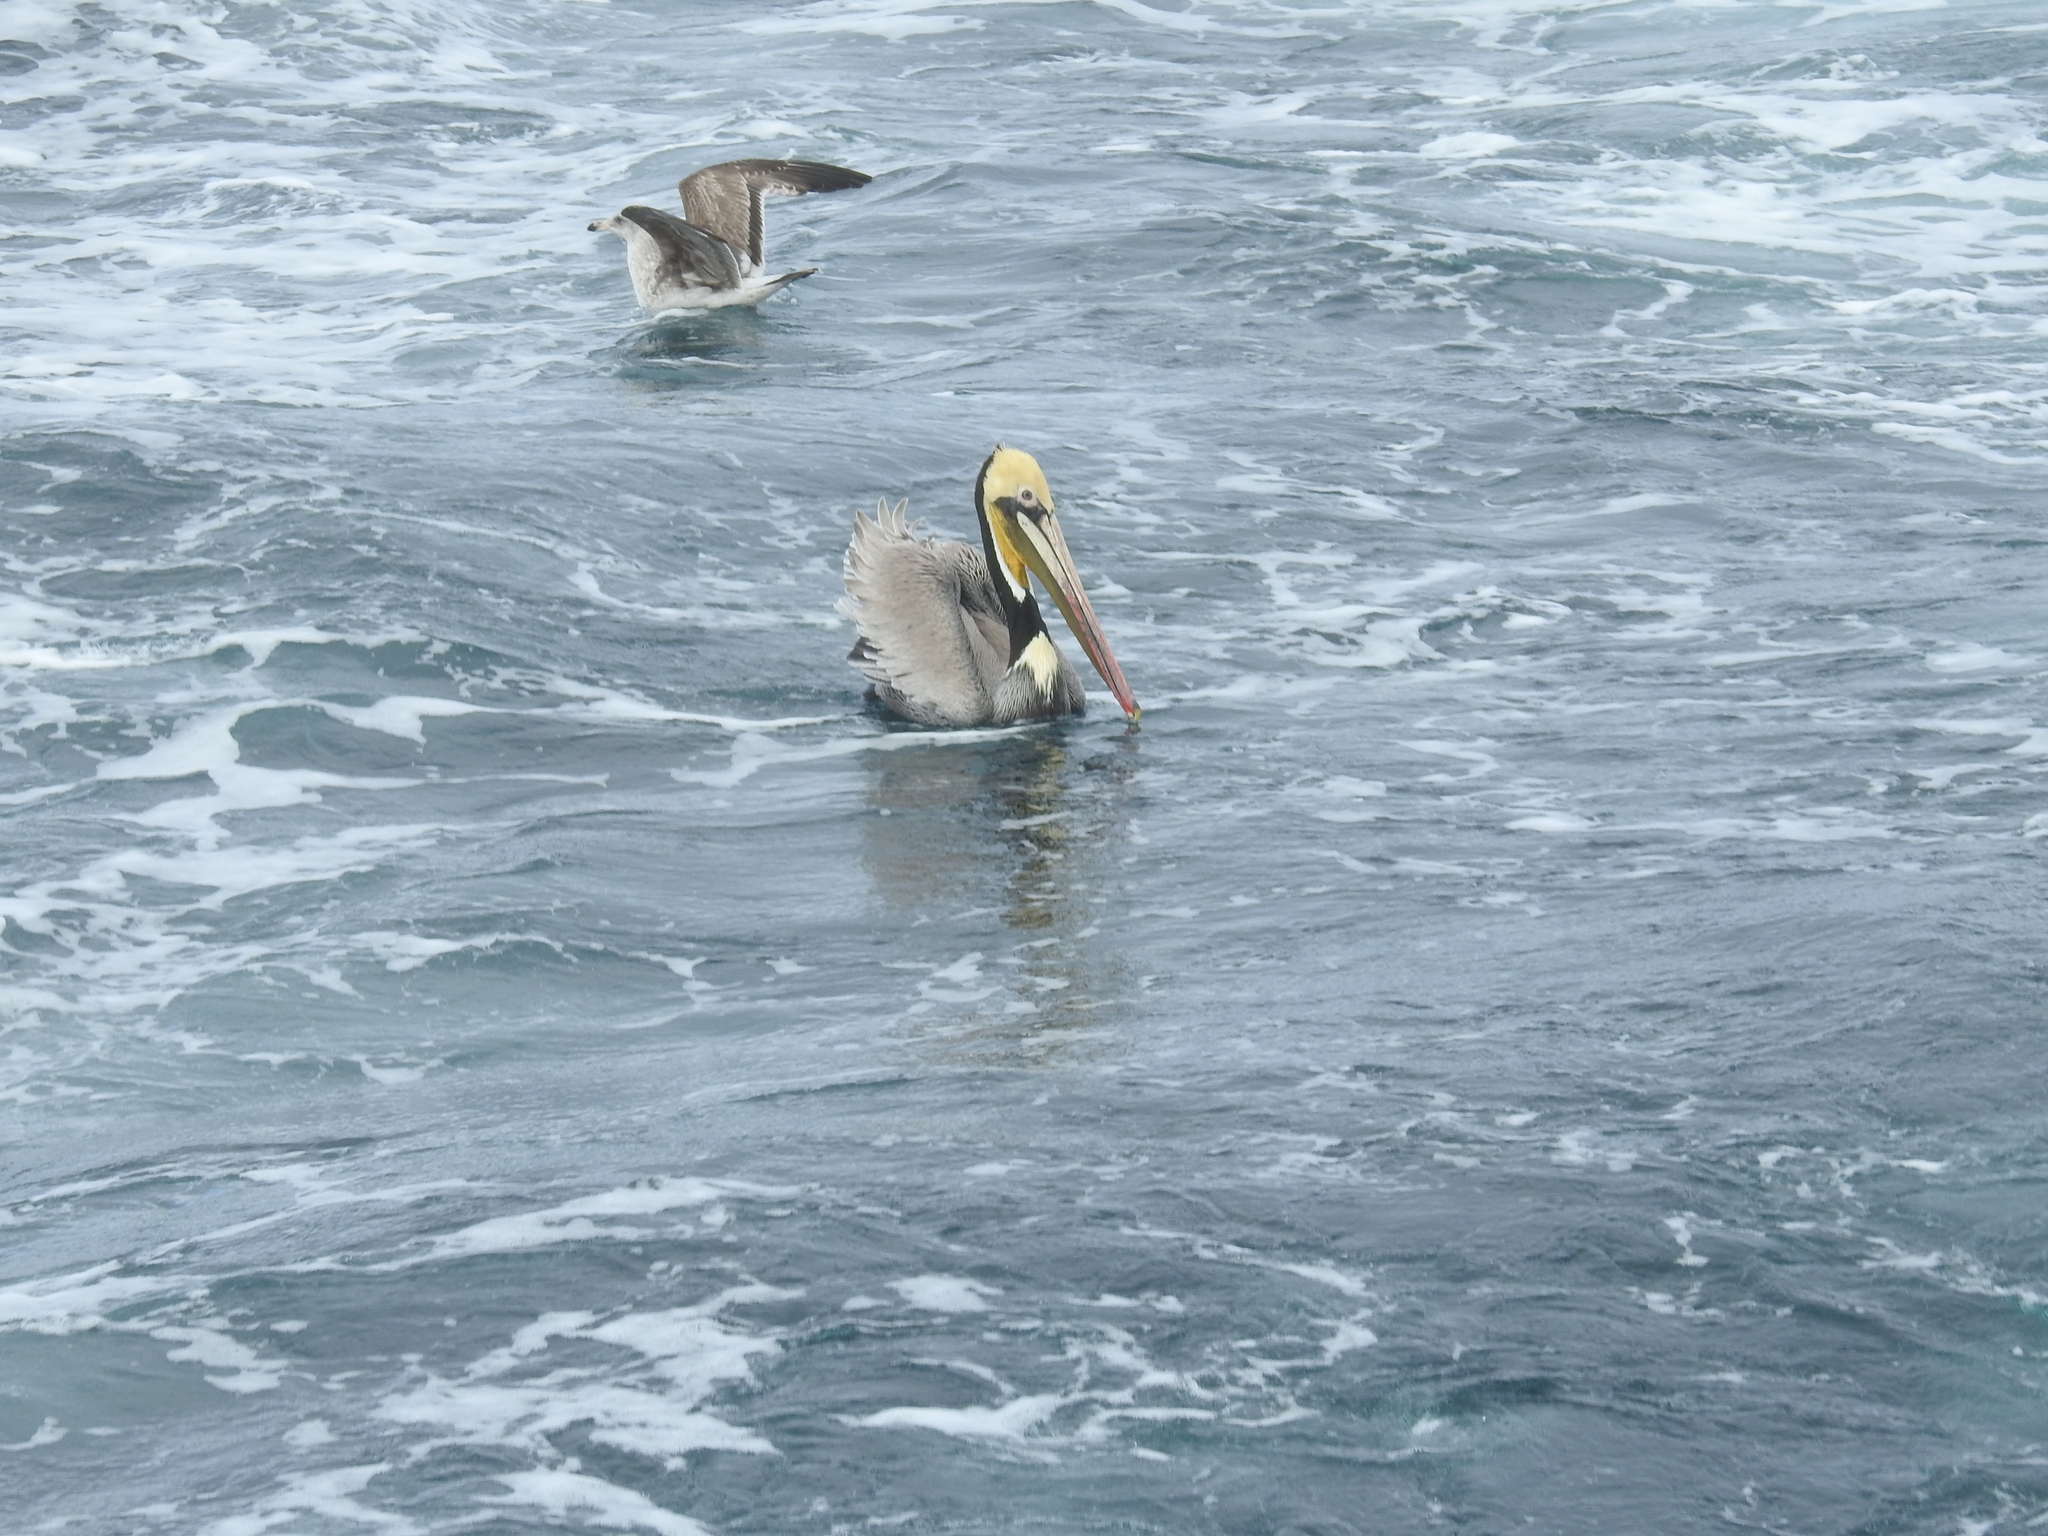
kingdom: Animalia
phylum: Chordata
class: Aves
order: Pelecaniformes
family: Pelecanidae
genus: Pelecanus
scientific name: Pelecanus occidentalis
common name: Brown pelican
